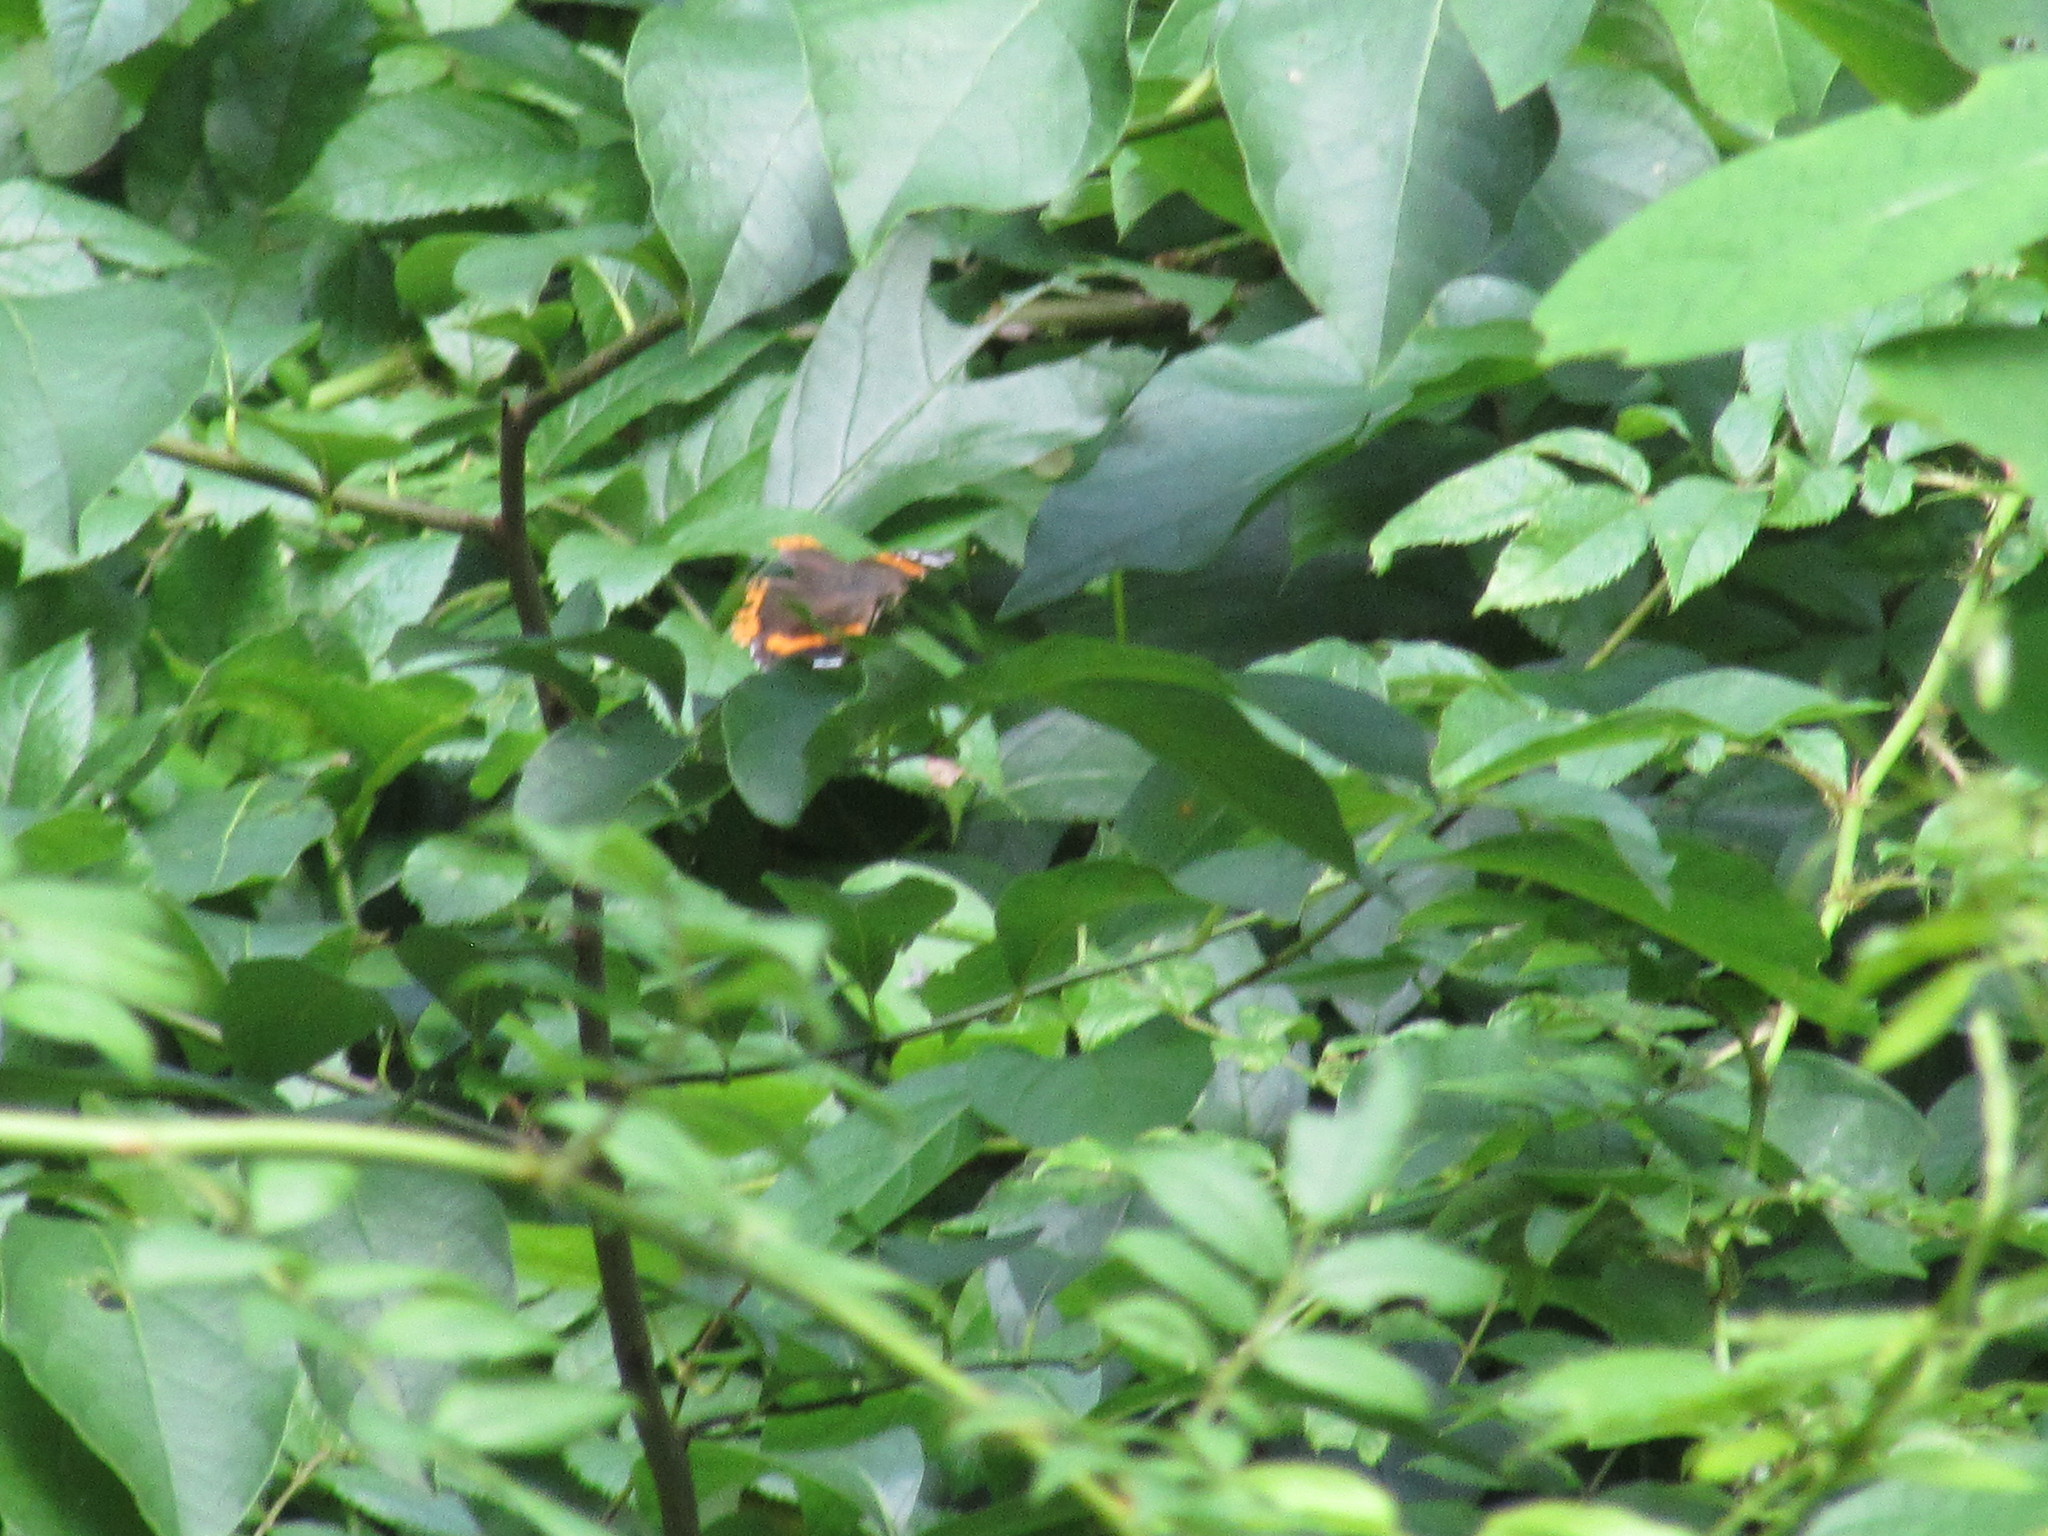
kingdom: Animalia
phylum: Arthropoda
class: Insecta
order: Lepidoptera
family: Nymphalidae
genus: Vanessa
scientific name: Vanessa atalanta
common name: Red admiral
